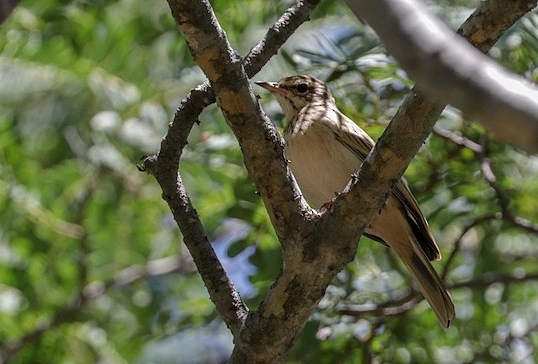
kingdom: Animalia
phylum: Chordata
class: Aves
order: Passeriformes
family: Motacillidae
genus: Anthus
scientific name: Anthus nyassae
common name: Wood pipit
